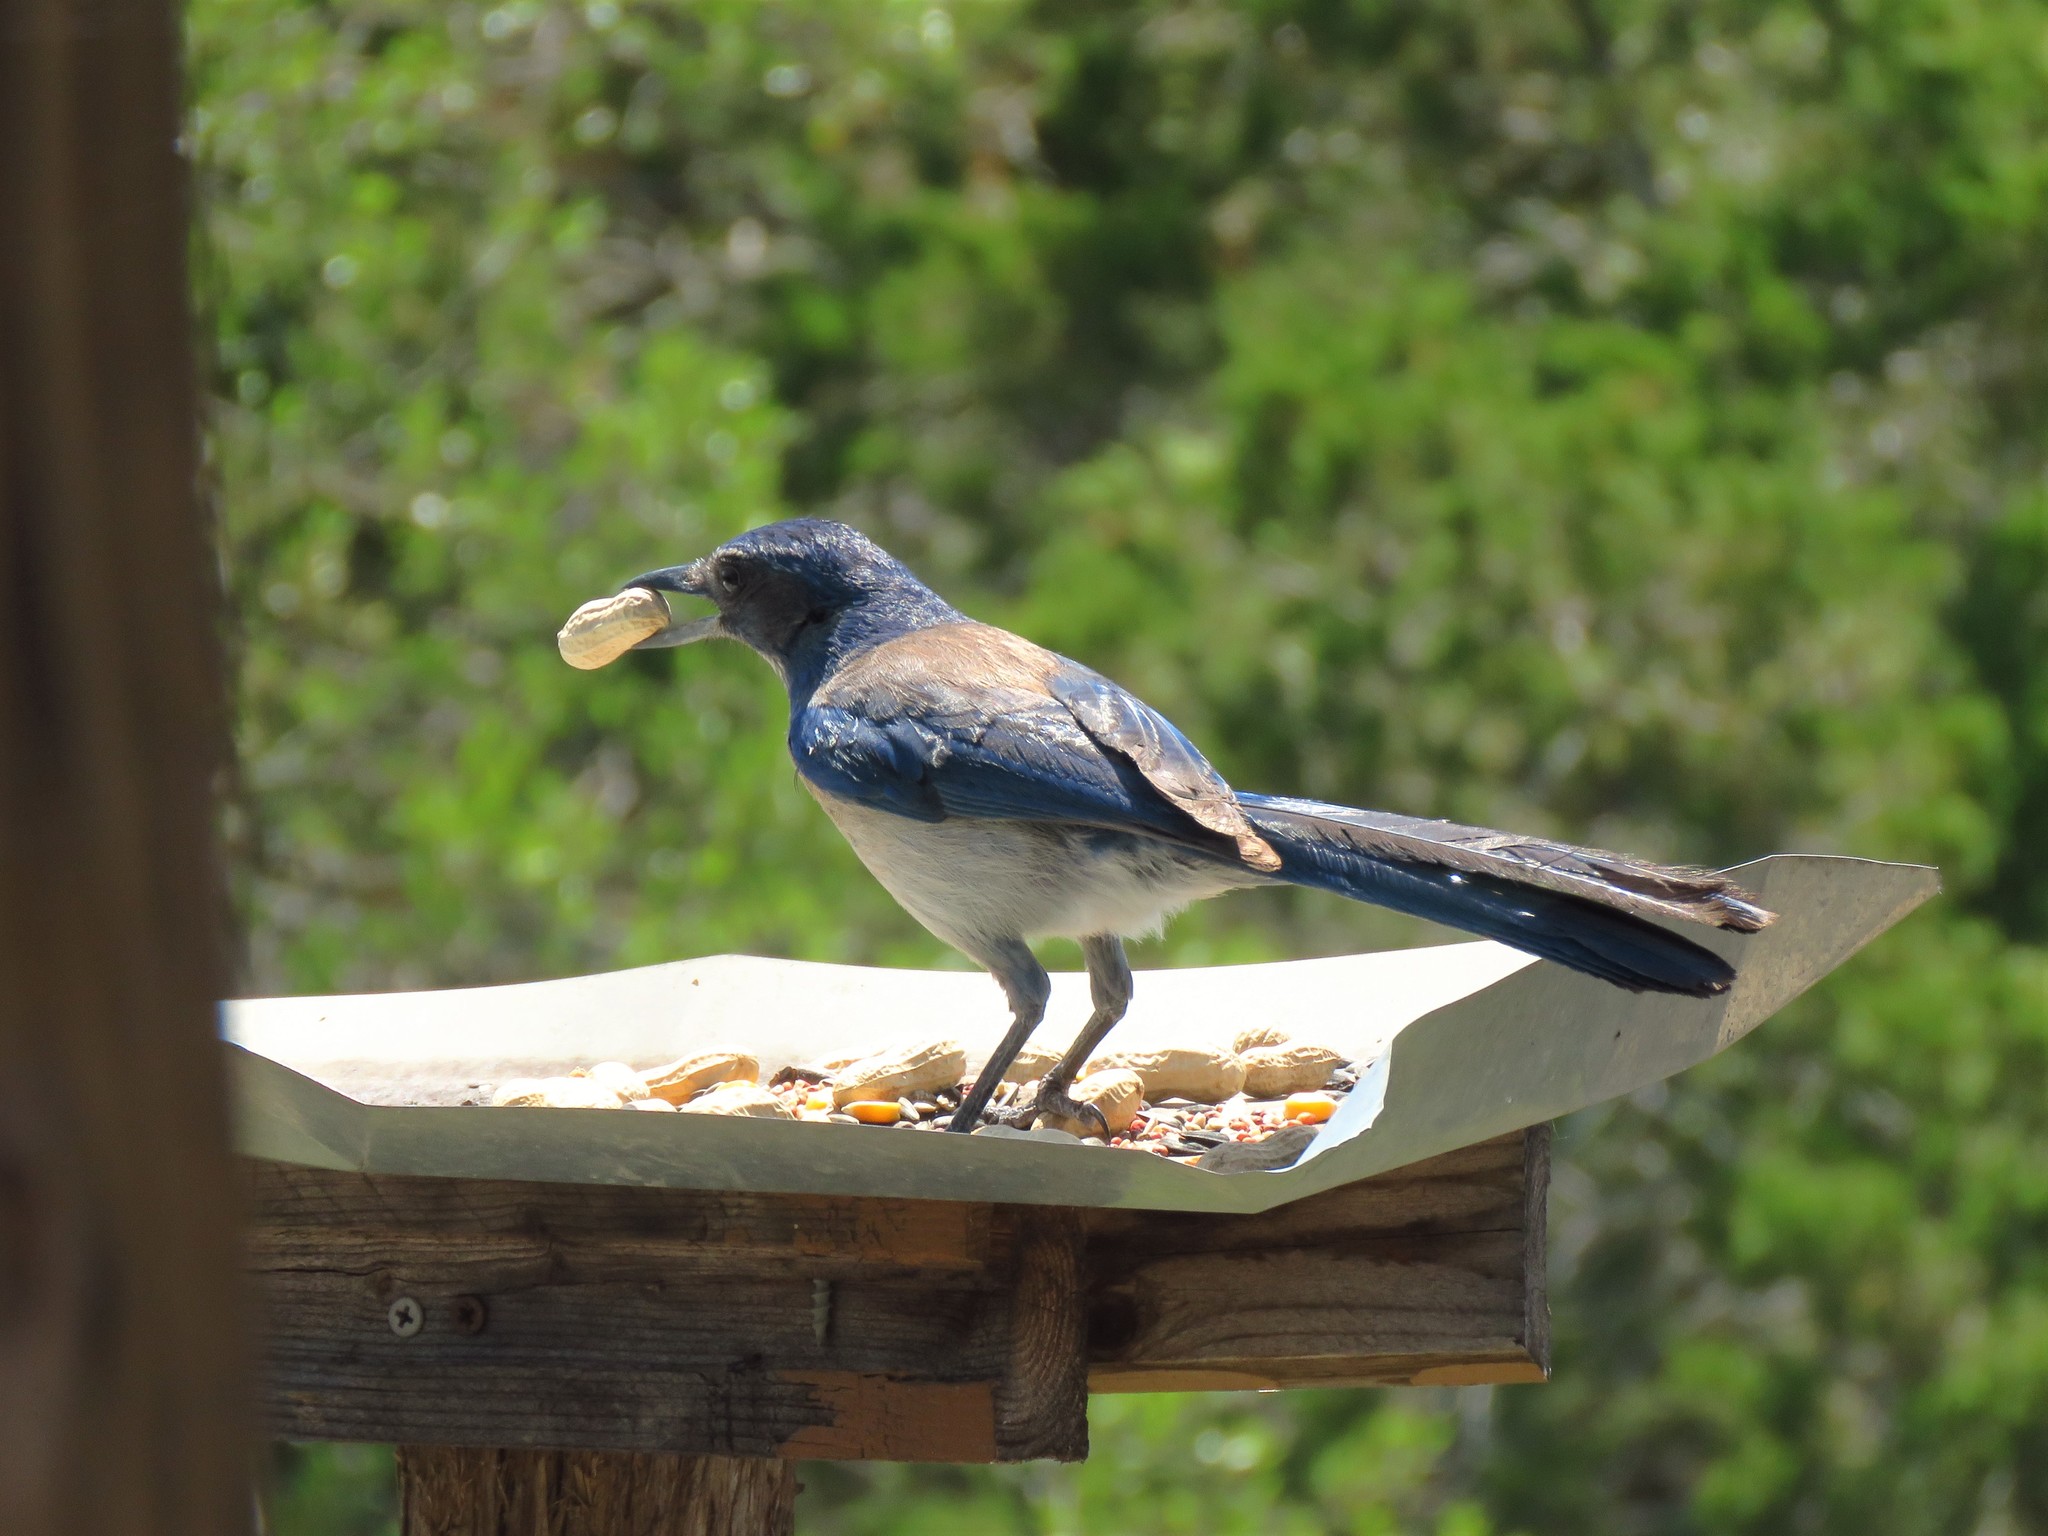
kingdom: Animalia
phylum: Chordata
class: Aves
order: Passeriformes
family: Corvidae
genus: Aphelocoma
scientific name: Aphelocoma woodhouseii
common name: Woodhouse's scrub-jay
